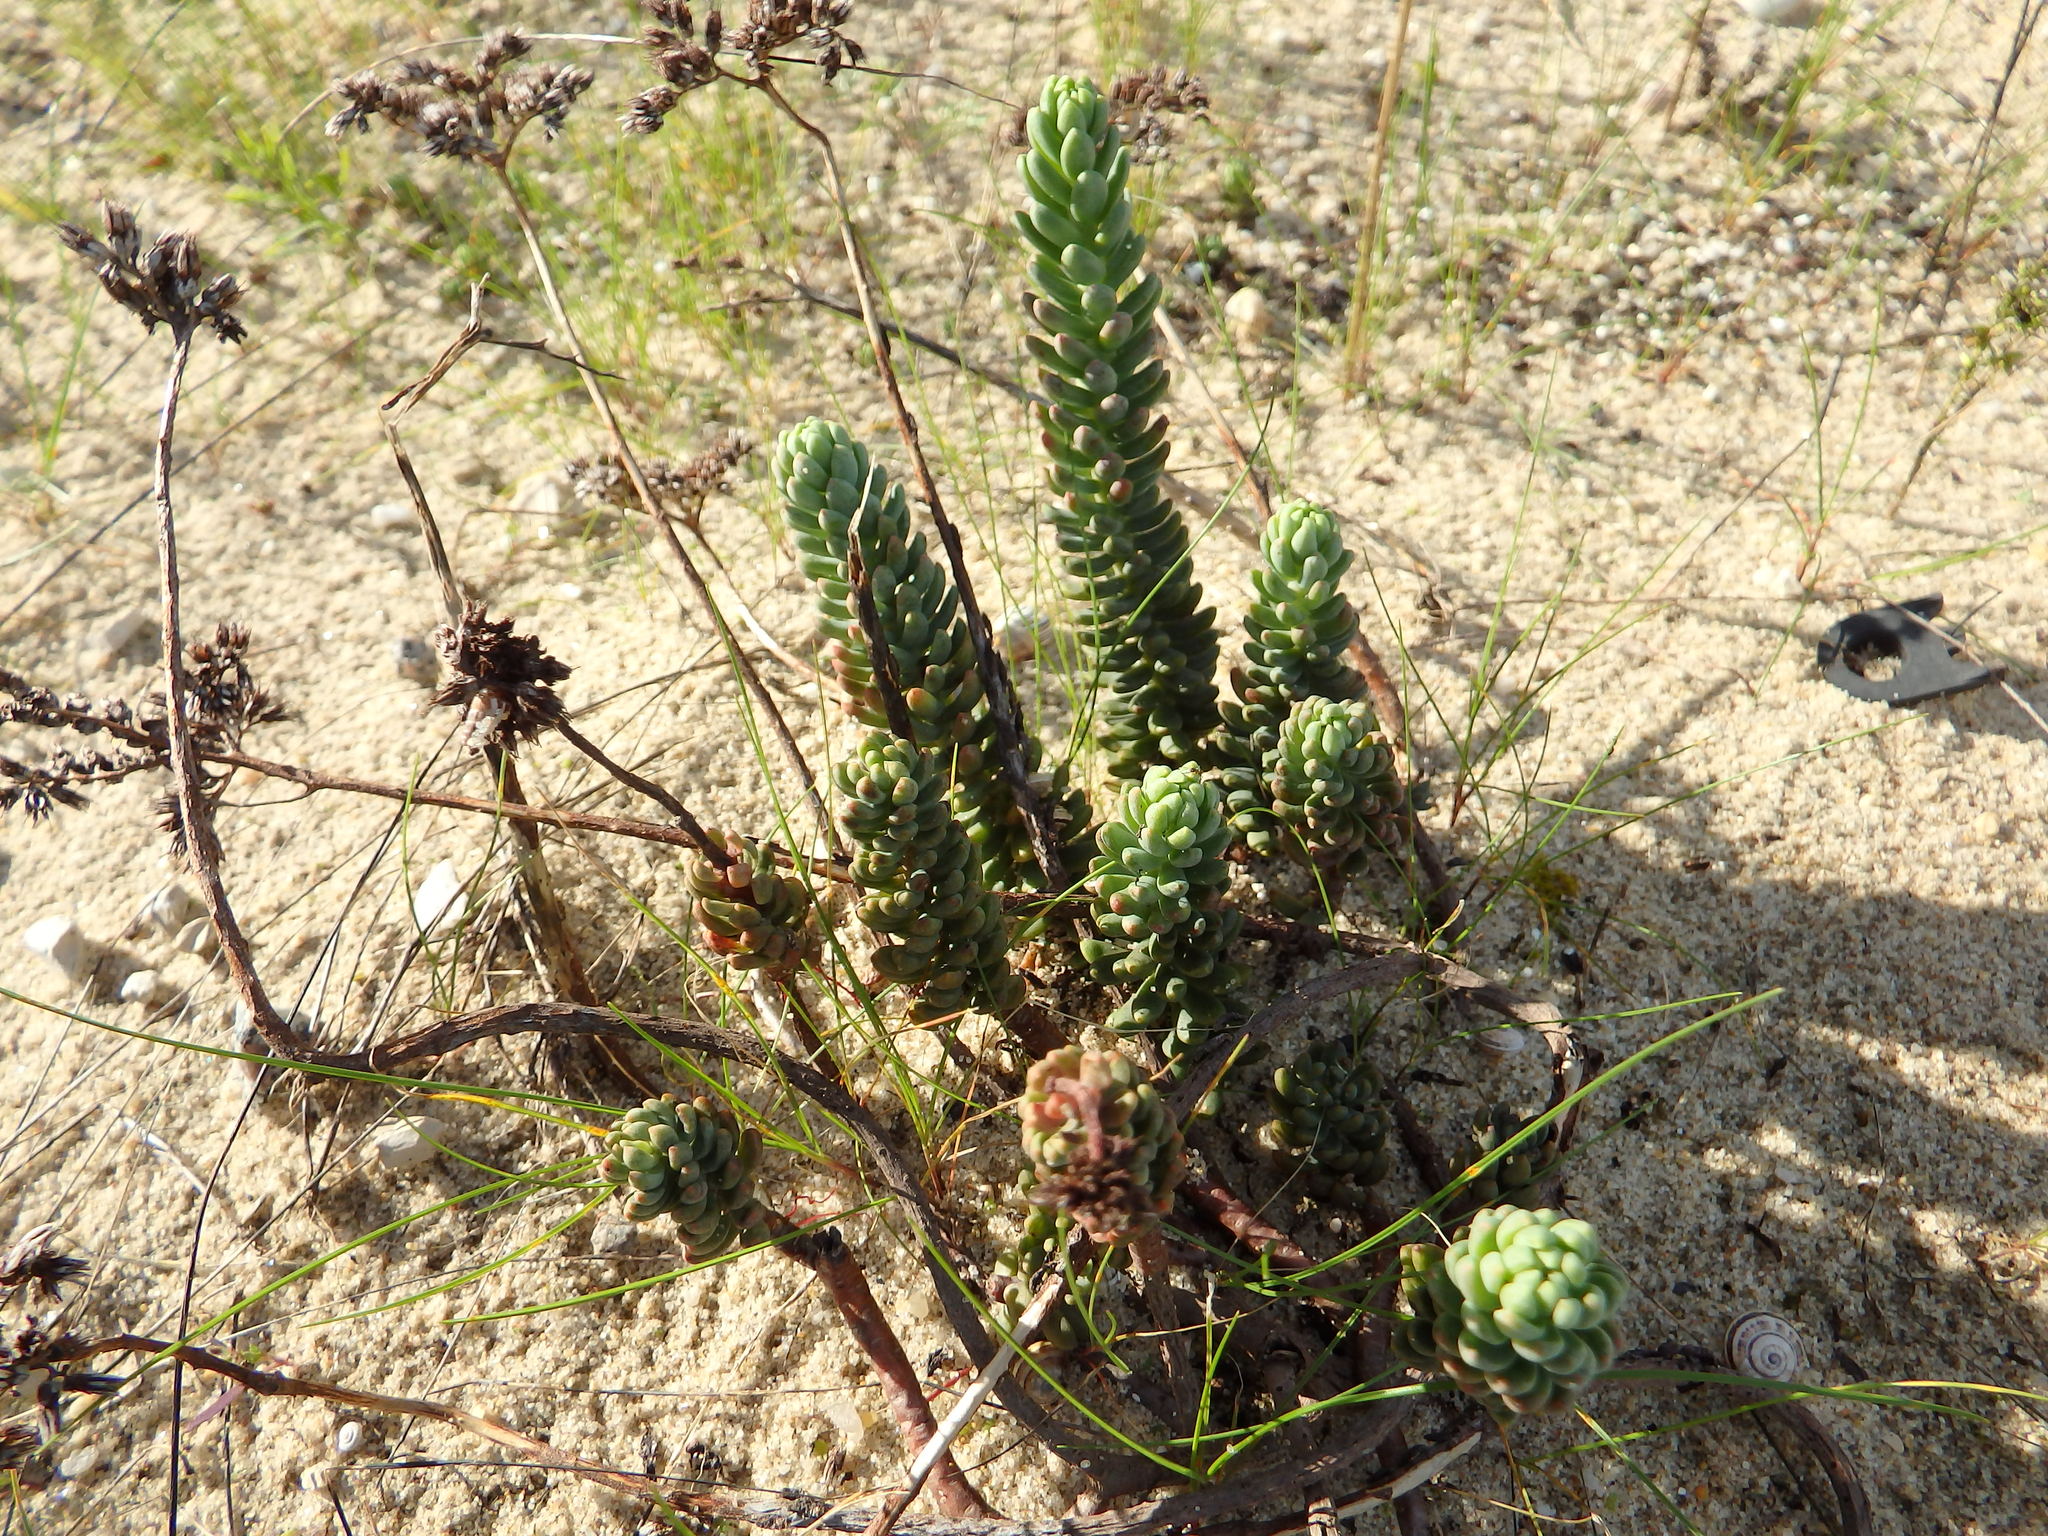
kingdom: Plantae
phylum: Tracheophyta
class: Magnoliopsida
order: Saxifragales
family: Crassulaceae
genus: Petrosedum
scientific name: Petrosedum sediforme
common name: Pale stonecrop
